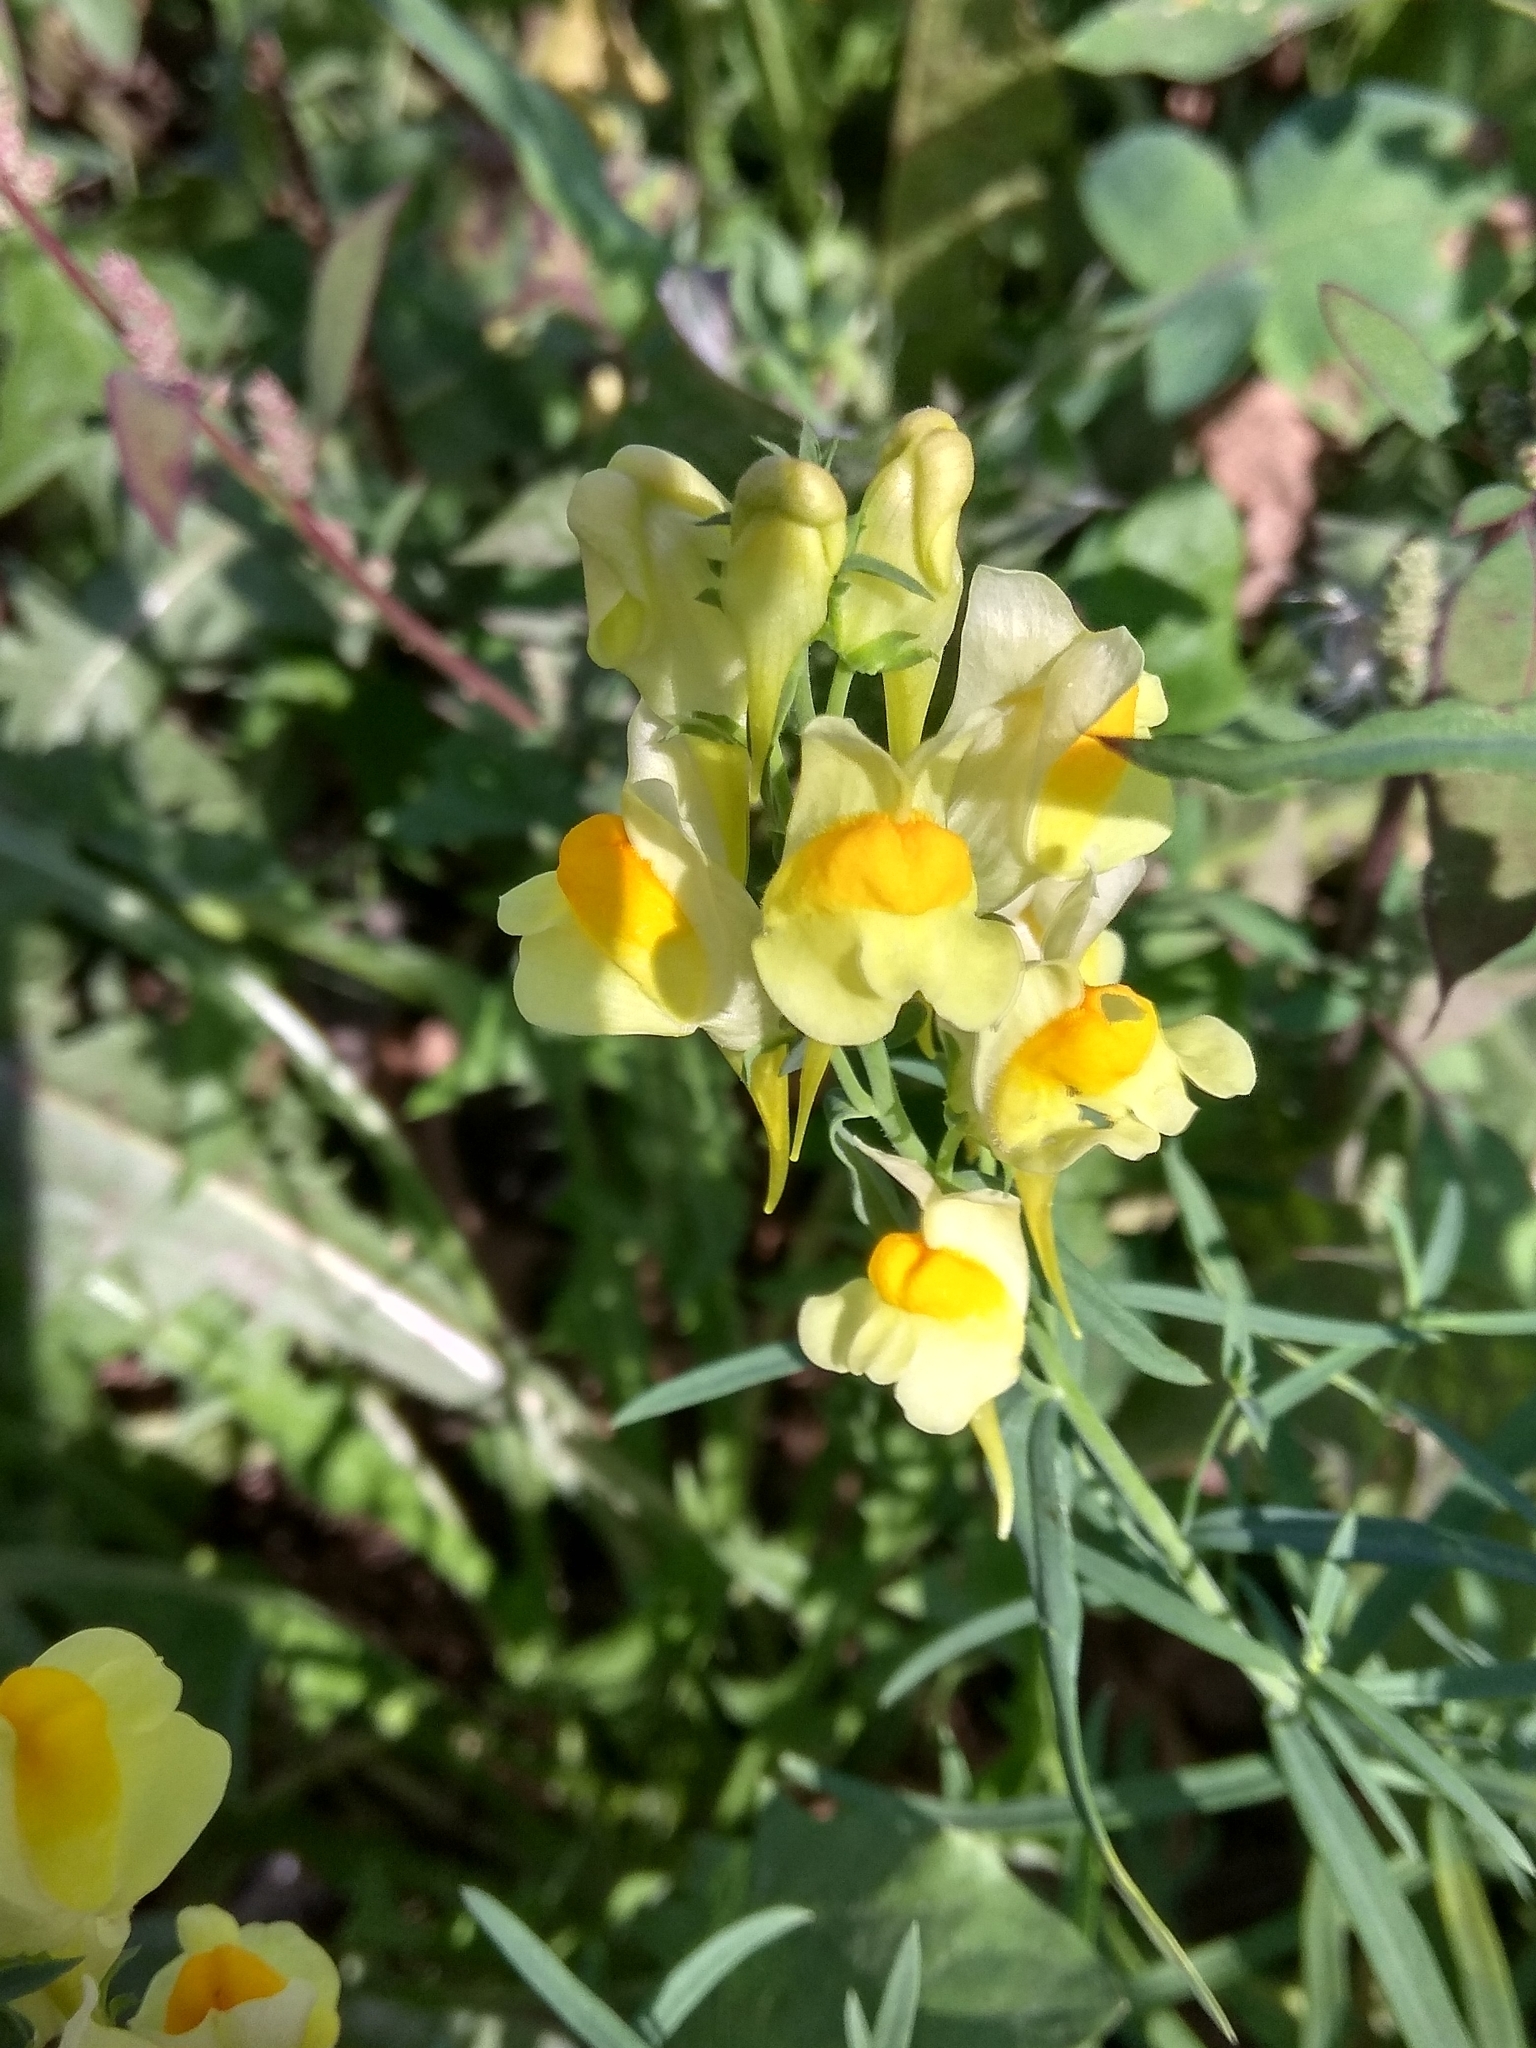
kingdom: Plantae
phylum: Tracheophyta
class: Magnoliopsida
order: Lamiales
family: Plantaginaceae
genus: Linaria
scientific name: Linaria vulgaris
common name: Butter and eggs
